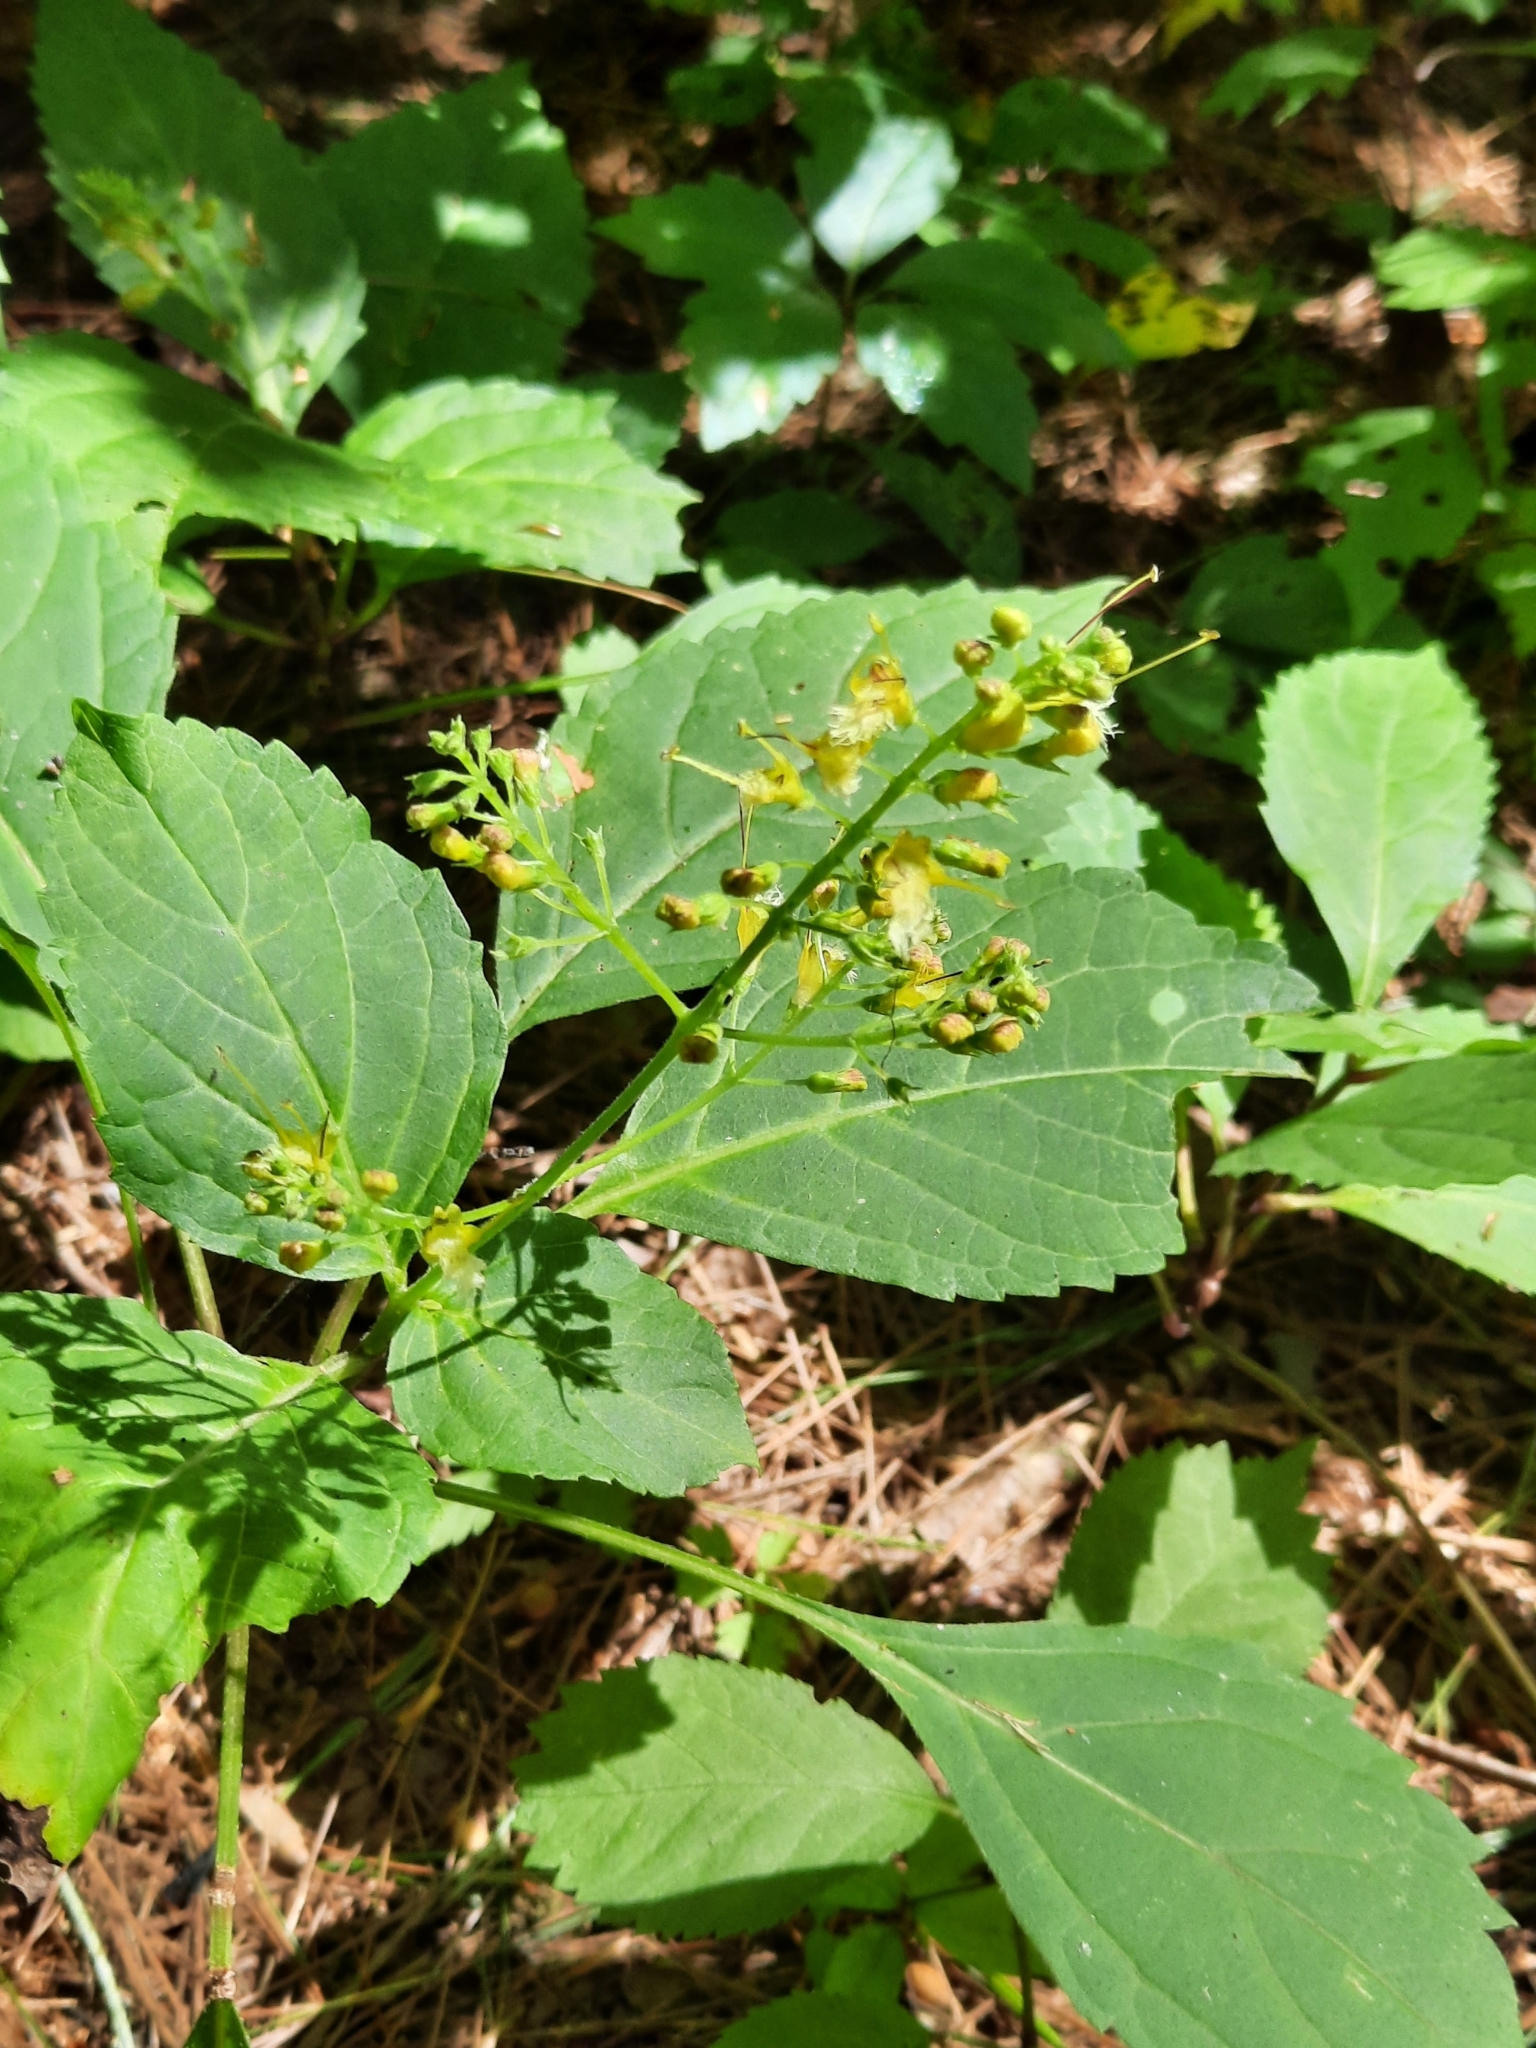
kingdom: Plantae
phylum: Tracheophyta
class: Magnoliopsida
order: Lamiales
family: Lamiaceae
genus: Collinsonia
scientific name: Collinsonia canadensis
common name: Northern horsebalm
